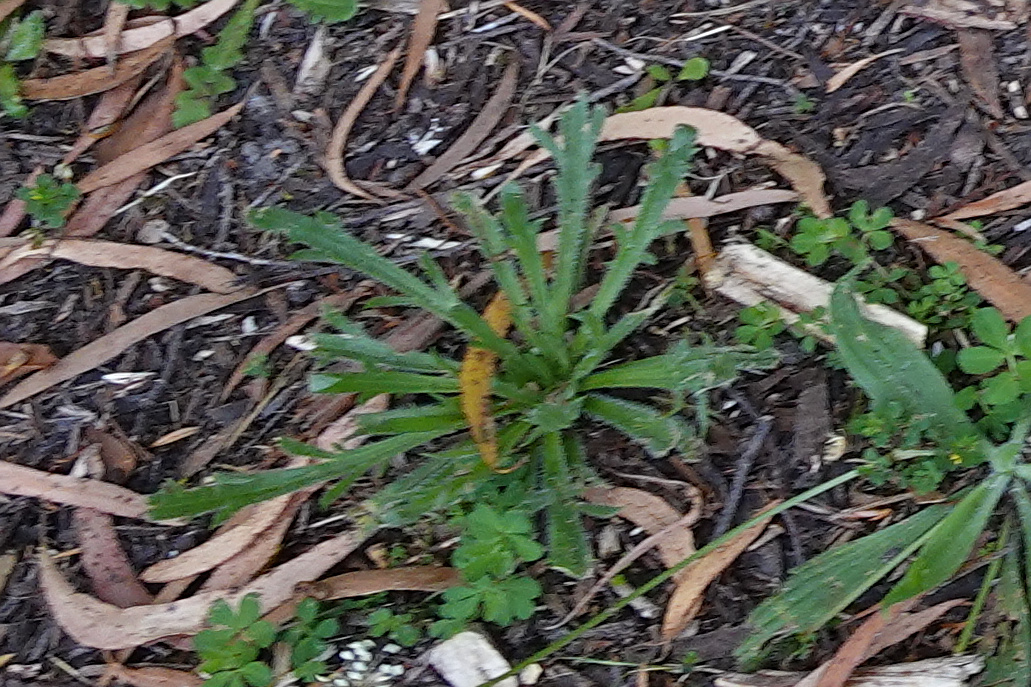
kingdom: Plantae
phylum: Tracheophyta
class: Magnoliopsida
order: Lamiales
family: Plantaginaceae
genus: Plantago
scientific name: Plantago coronopus
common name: Buck's-horn plantain
